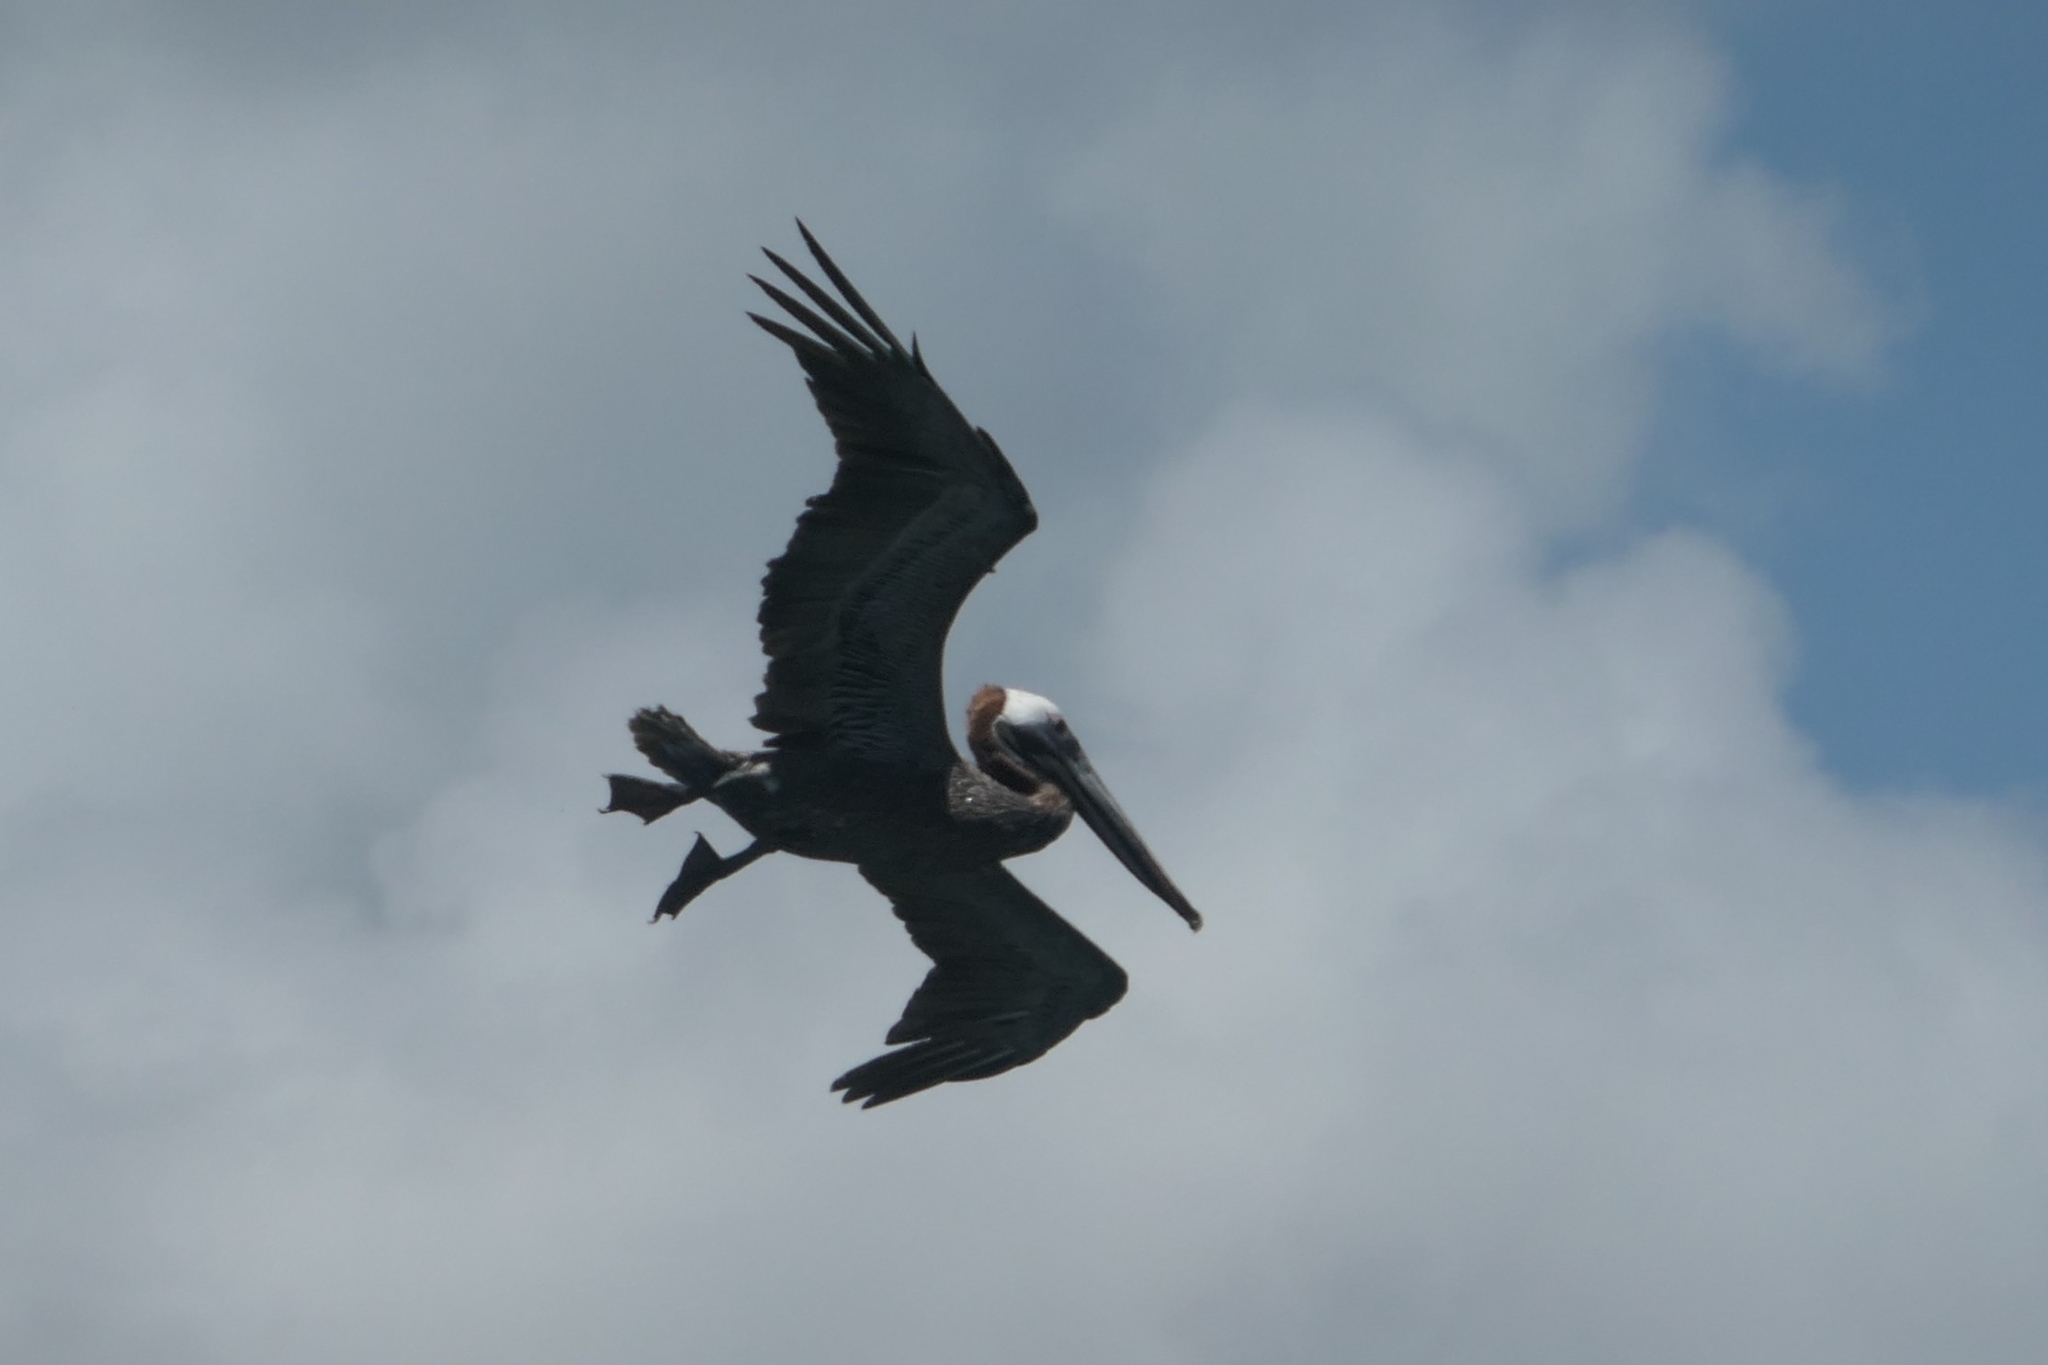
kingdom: Animalia
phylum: Chordata
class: Aves
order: Pelecaniformes
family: Pelecanidae
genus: Pelecanus
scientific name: Pelecanus occidentalis
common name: Brown pelican
